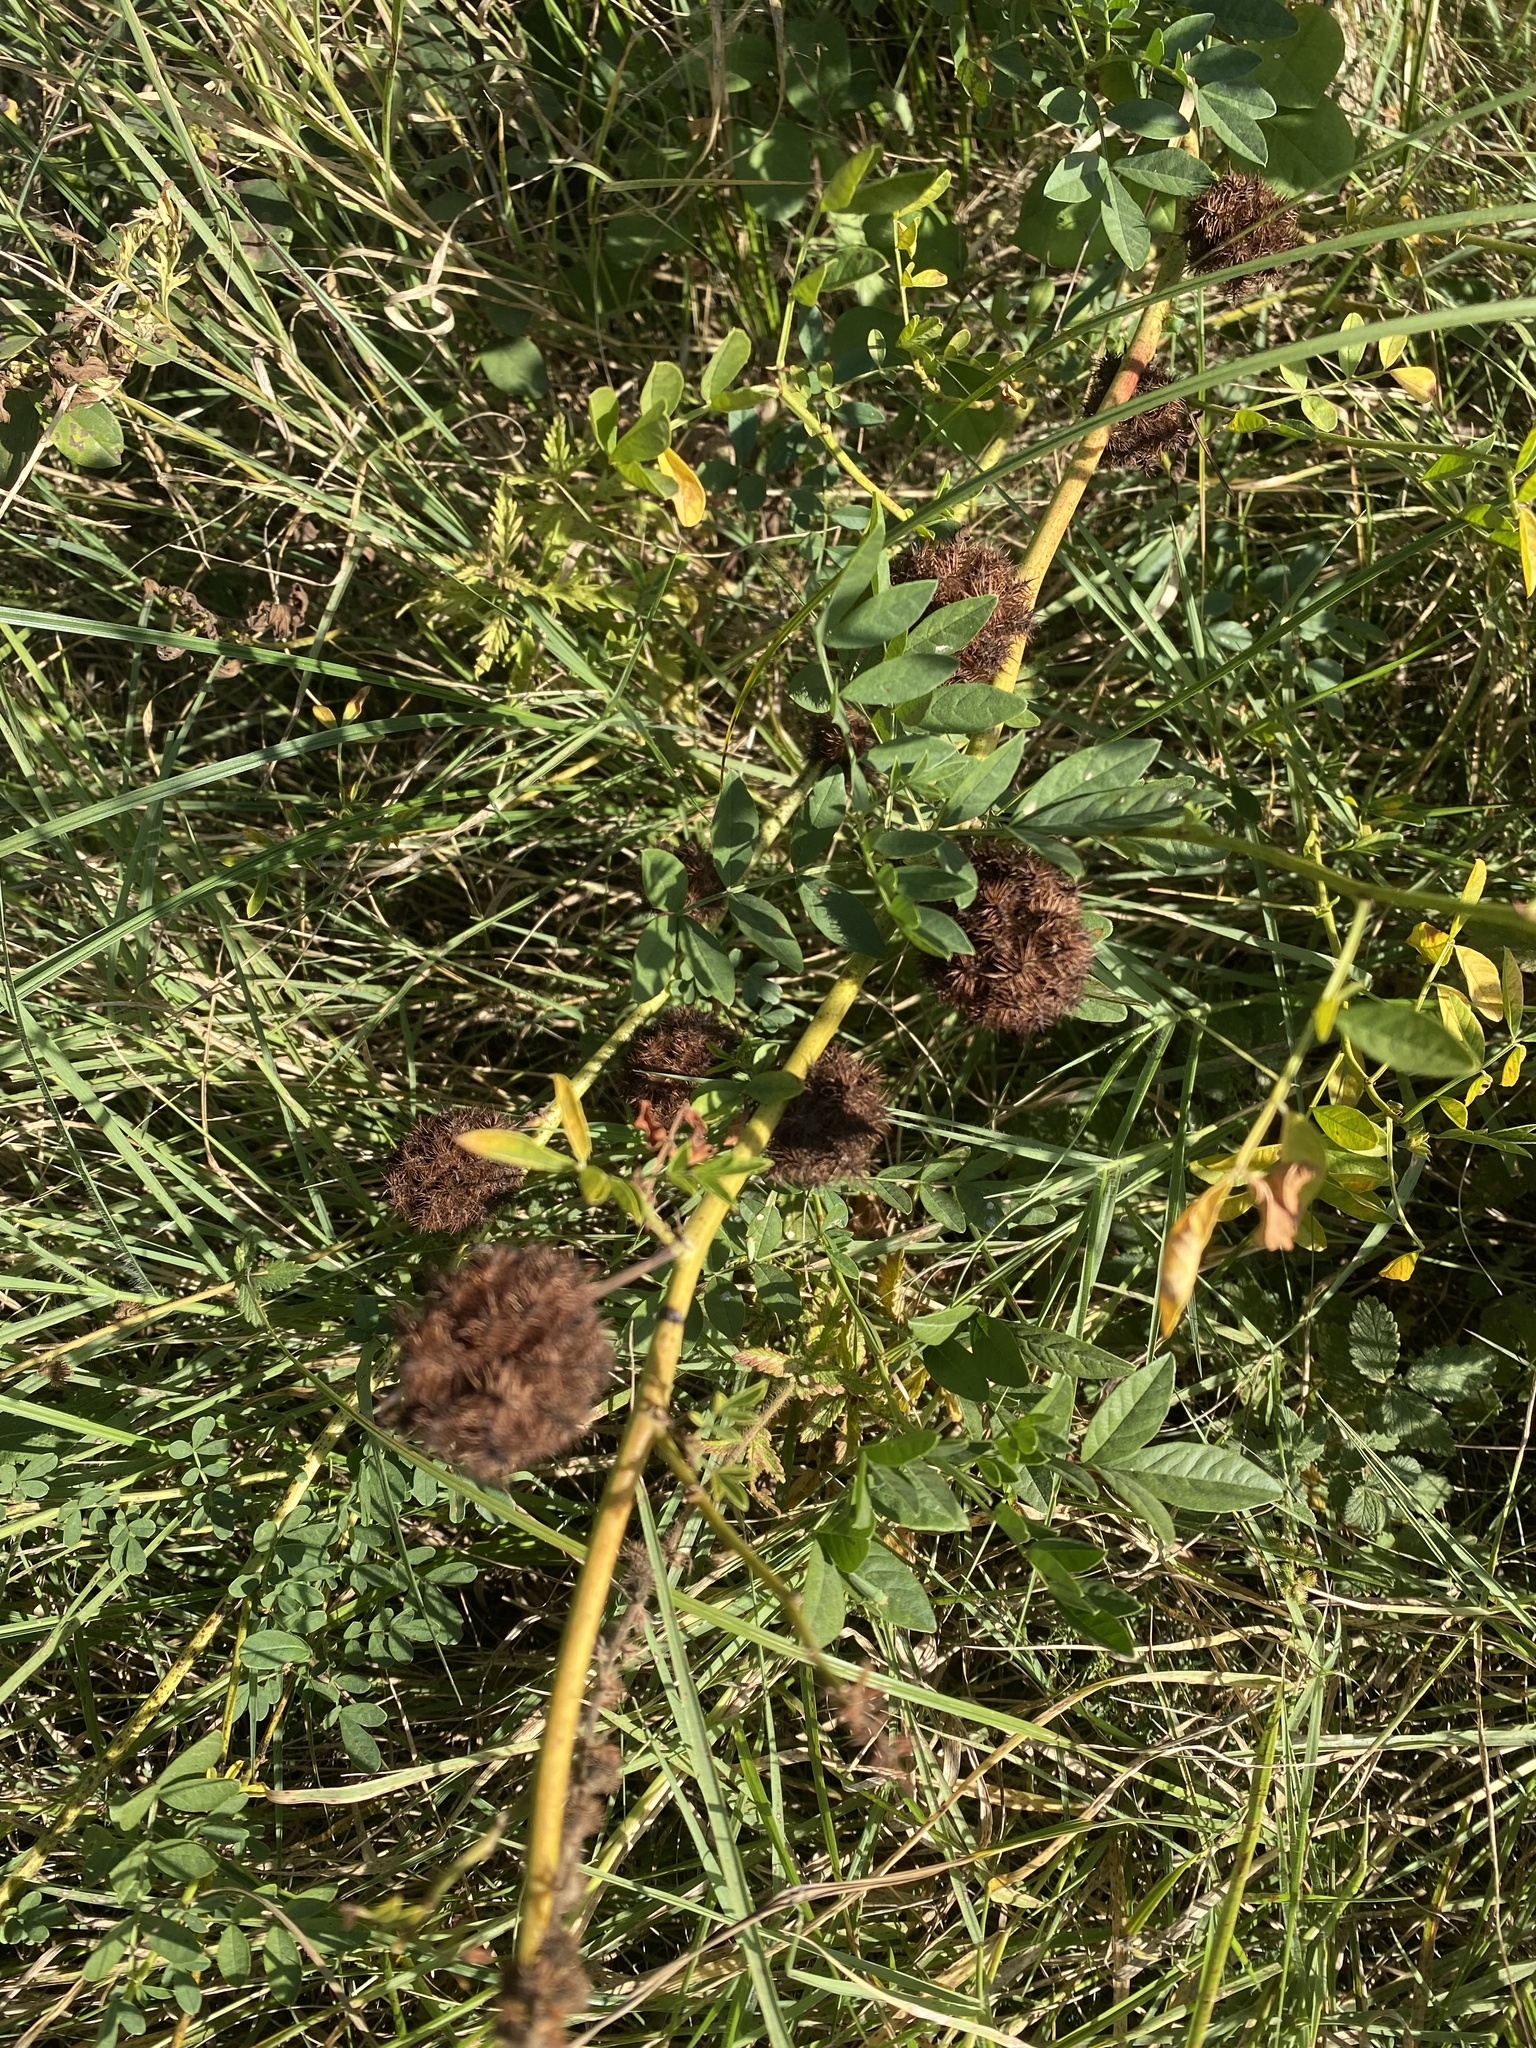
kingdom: Plantae
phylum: Tracheophyta
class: Magnoliopsida
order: Fabales
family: Fabaceae
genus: Glycyrrhiza
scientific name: Glycyrrhiza echinata
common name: German liquorice
